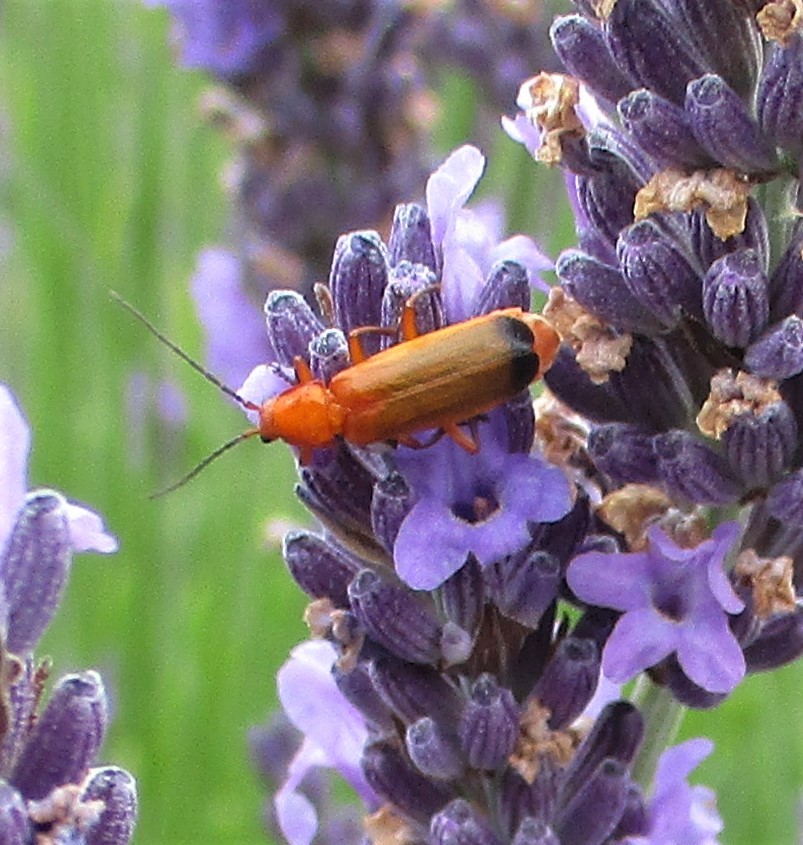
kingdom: Animalia
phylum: Arthropoda
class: Insecta
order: Coleoptera
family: Cantharidae
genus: Rhagonycha
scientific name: Rhagonycha fulva
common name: Common red soldier beetle
